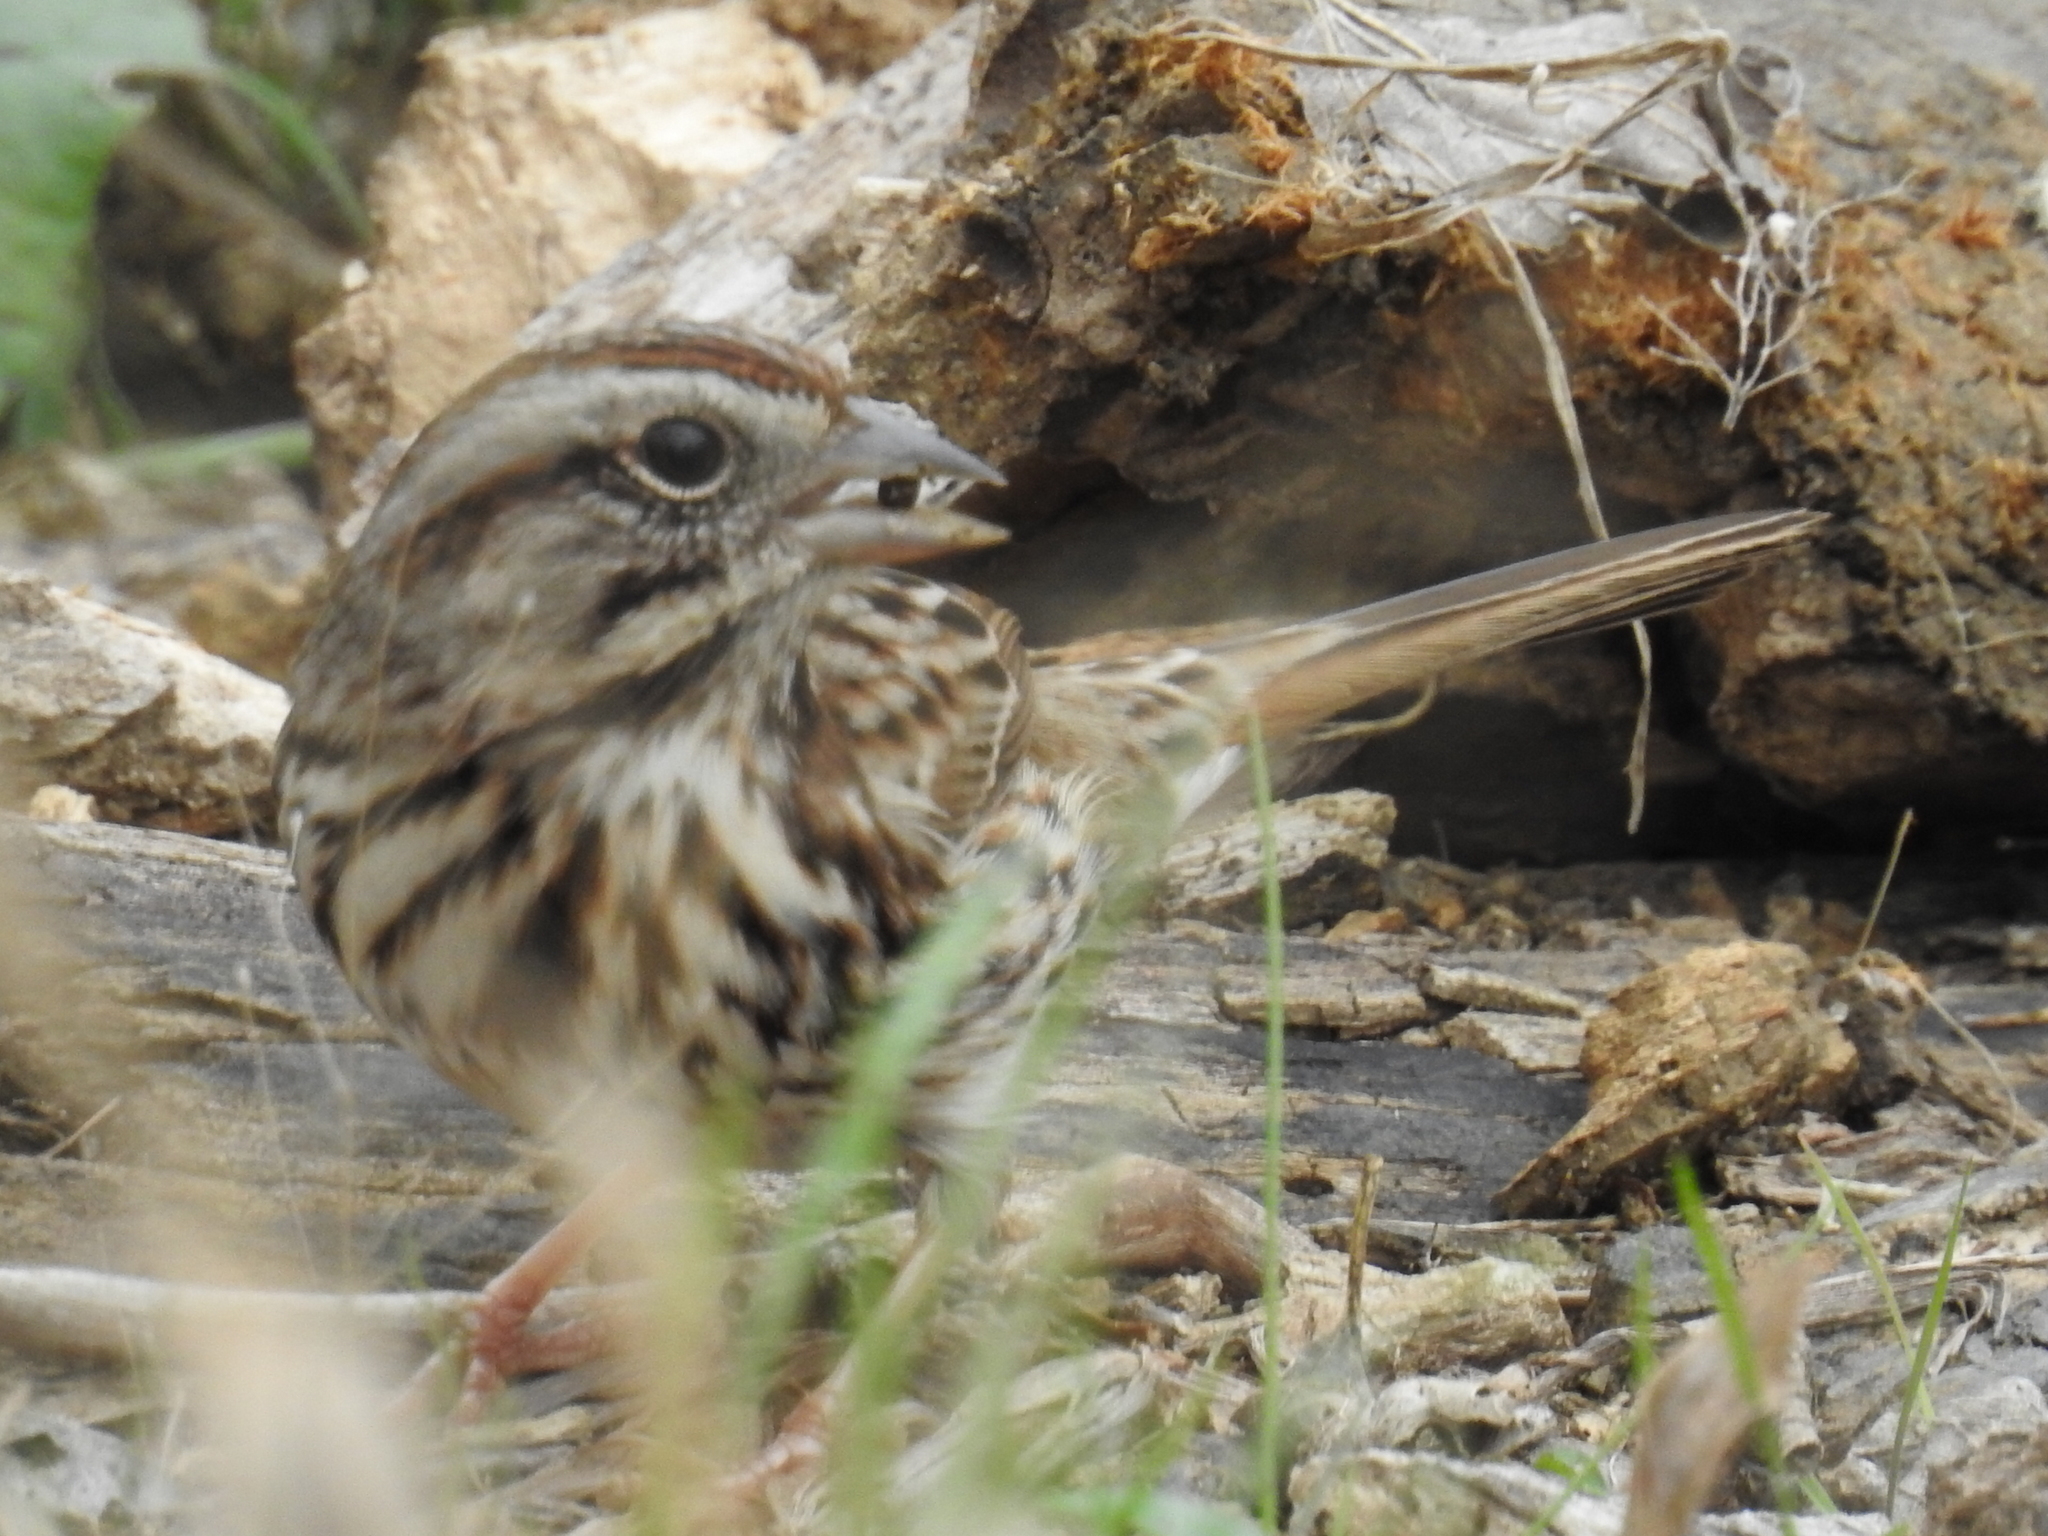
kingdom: Animalia
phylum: Chordata
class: Aves
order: Passeriformes
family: Passerellidae
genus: Melospiza
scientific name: Melospiza melodia
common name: Song sparrow
